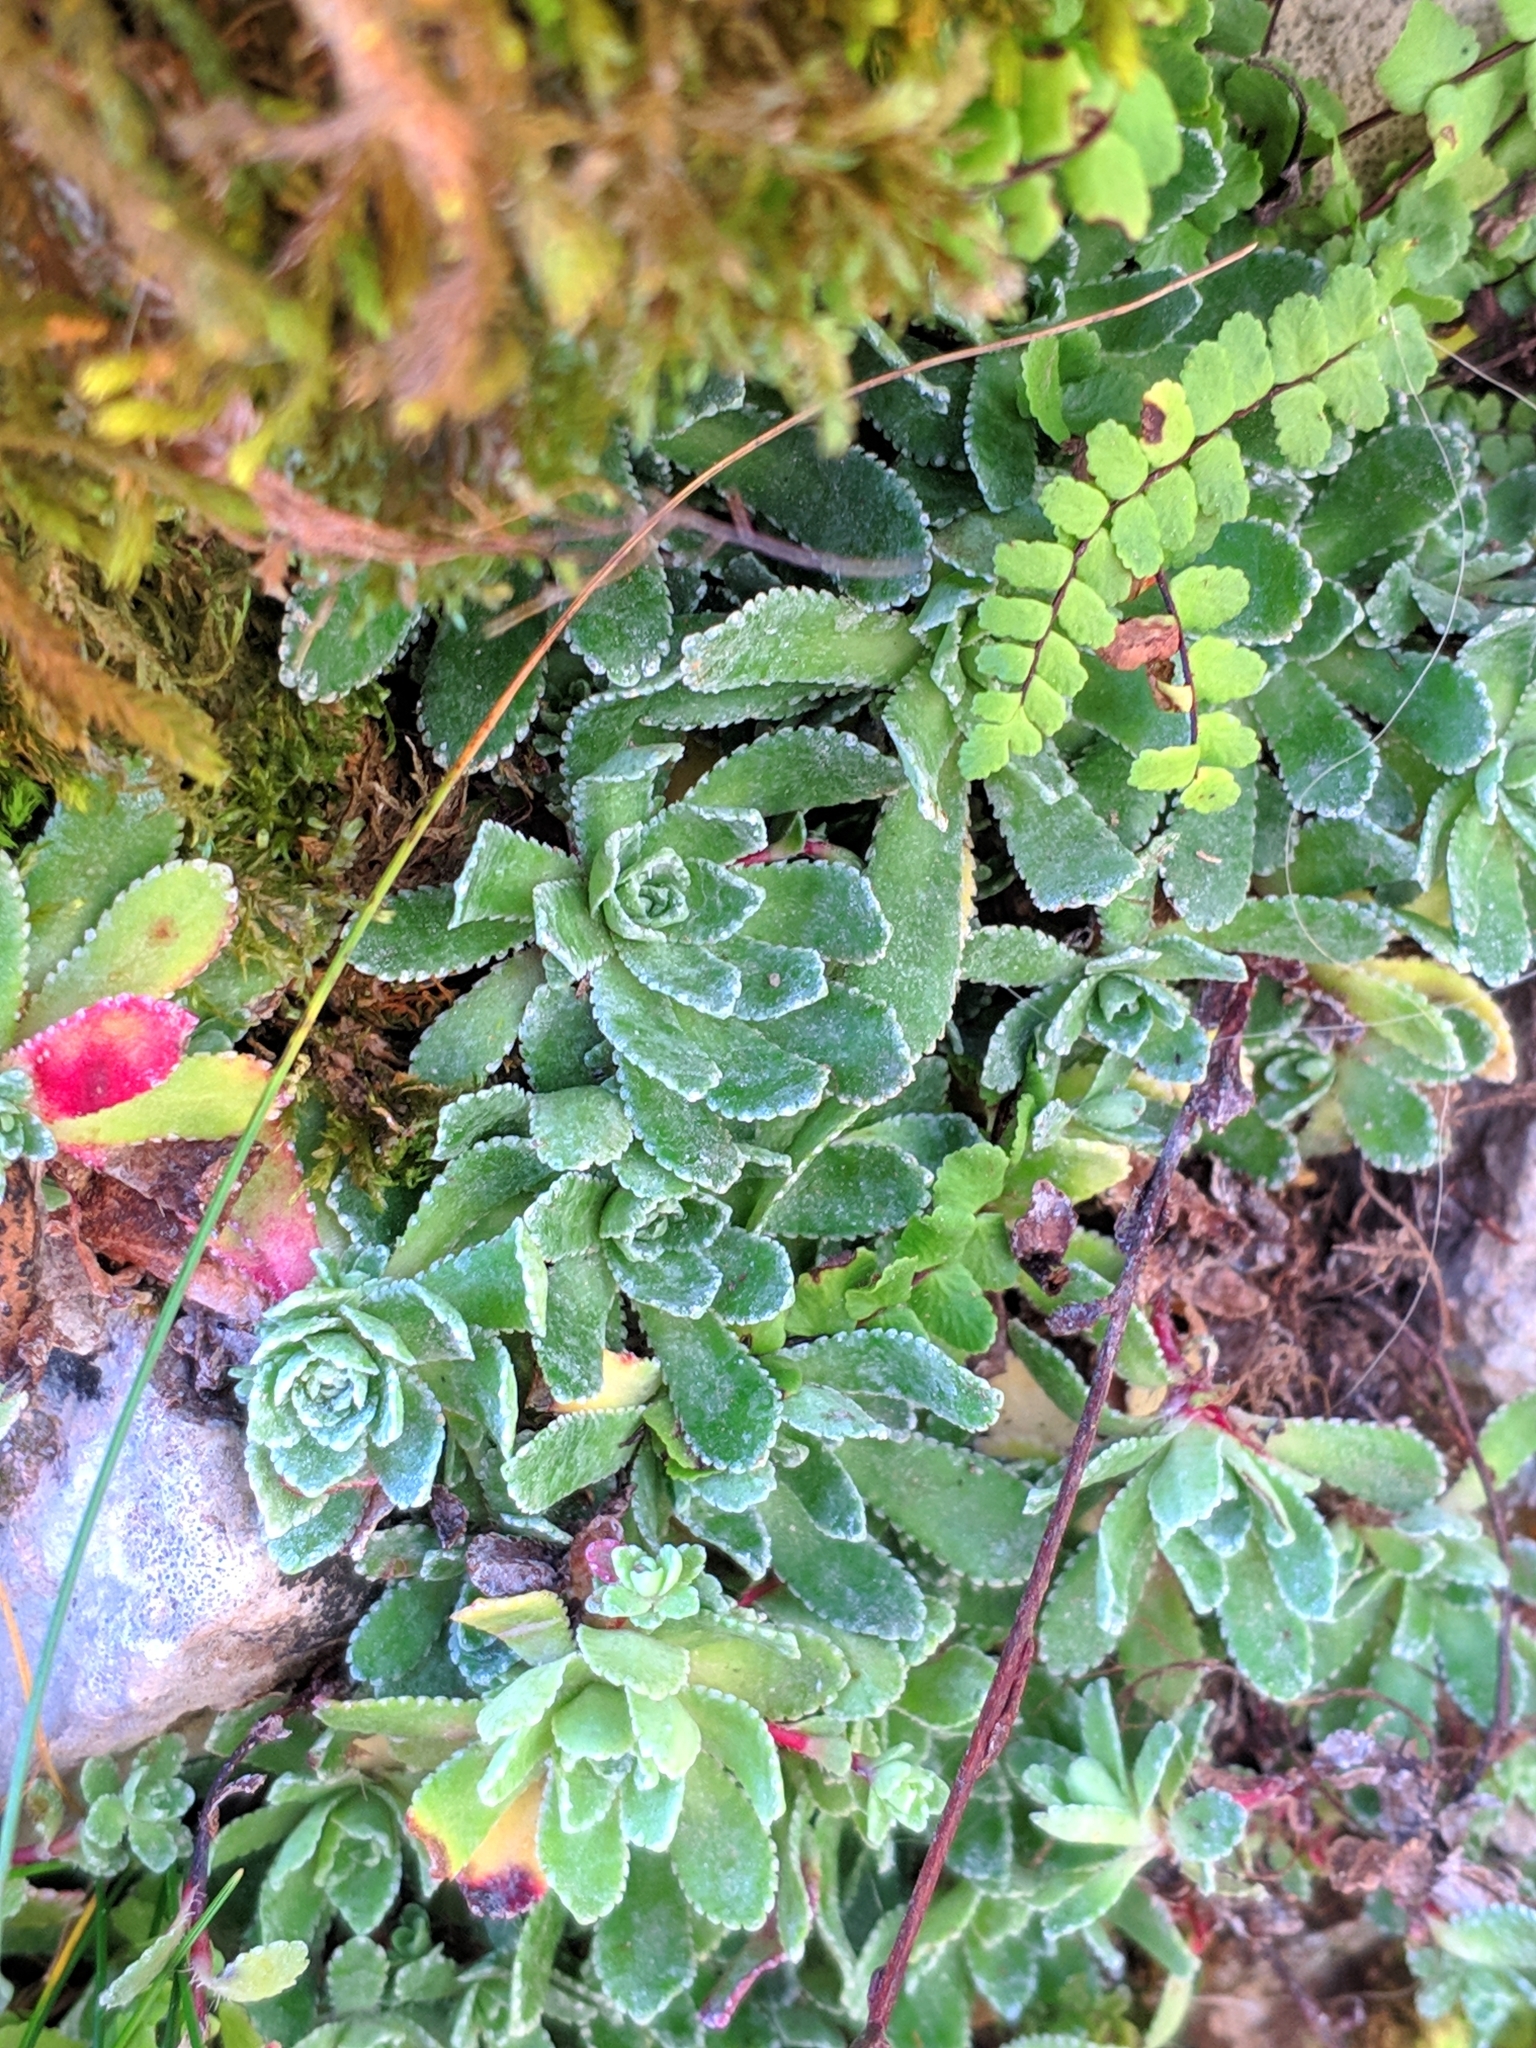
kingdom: Plantae
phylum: Tracheophyta
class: Magnoliopsida
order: Saxifragales
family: Saxifragaceae
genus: Saxifraga
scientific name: Saxifraga paniculata
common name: Livelong saxifrage
